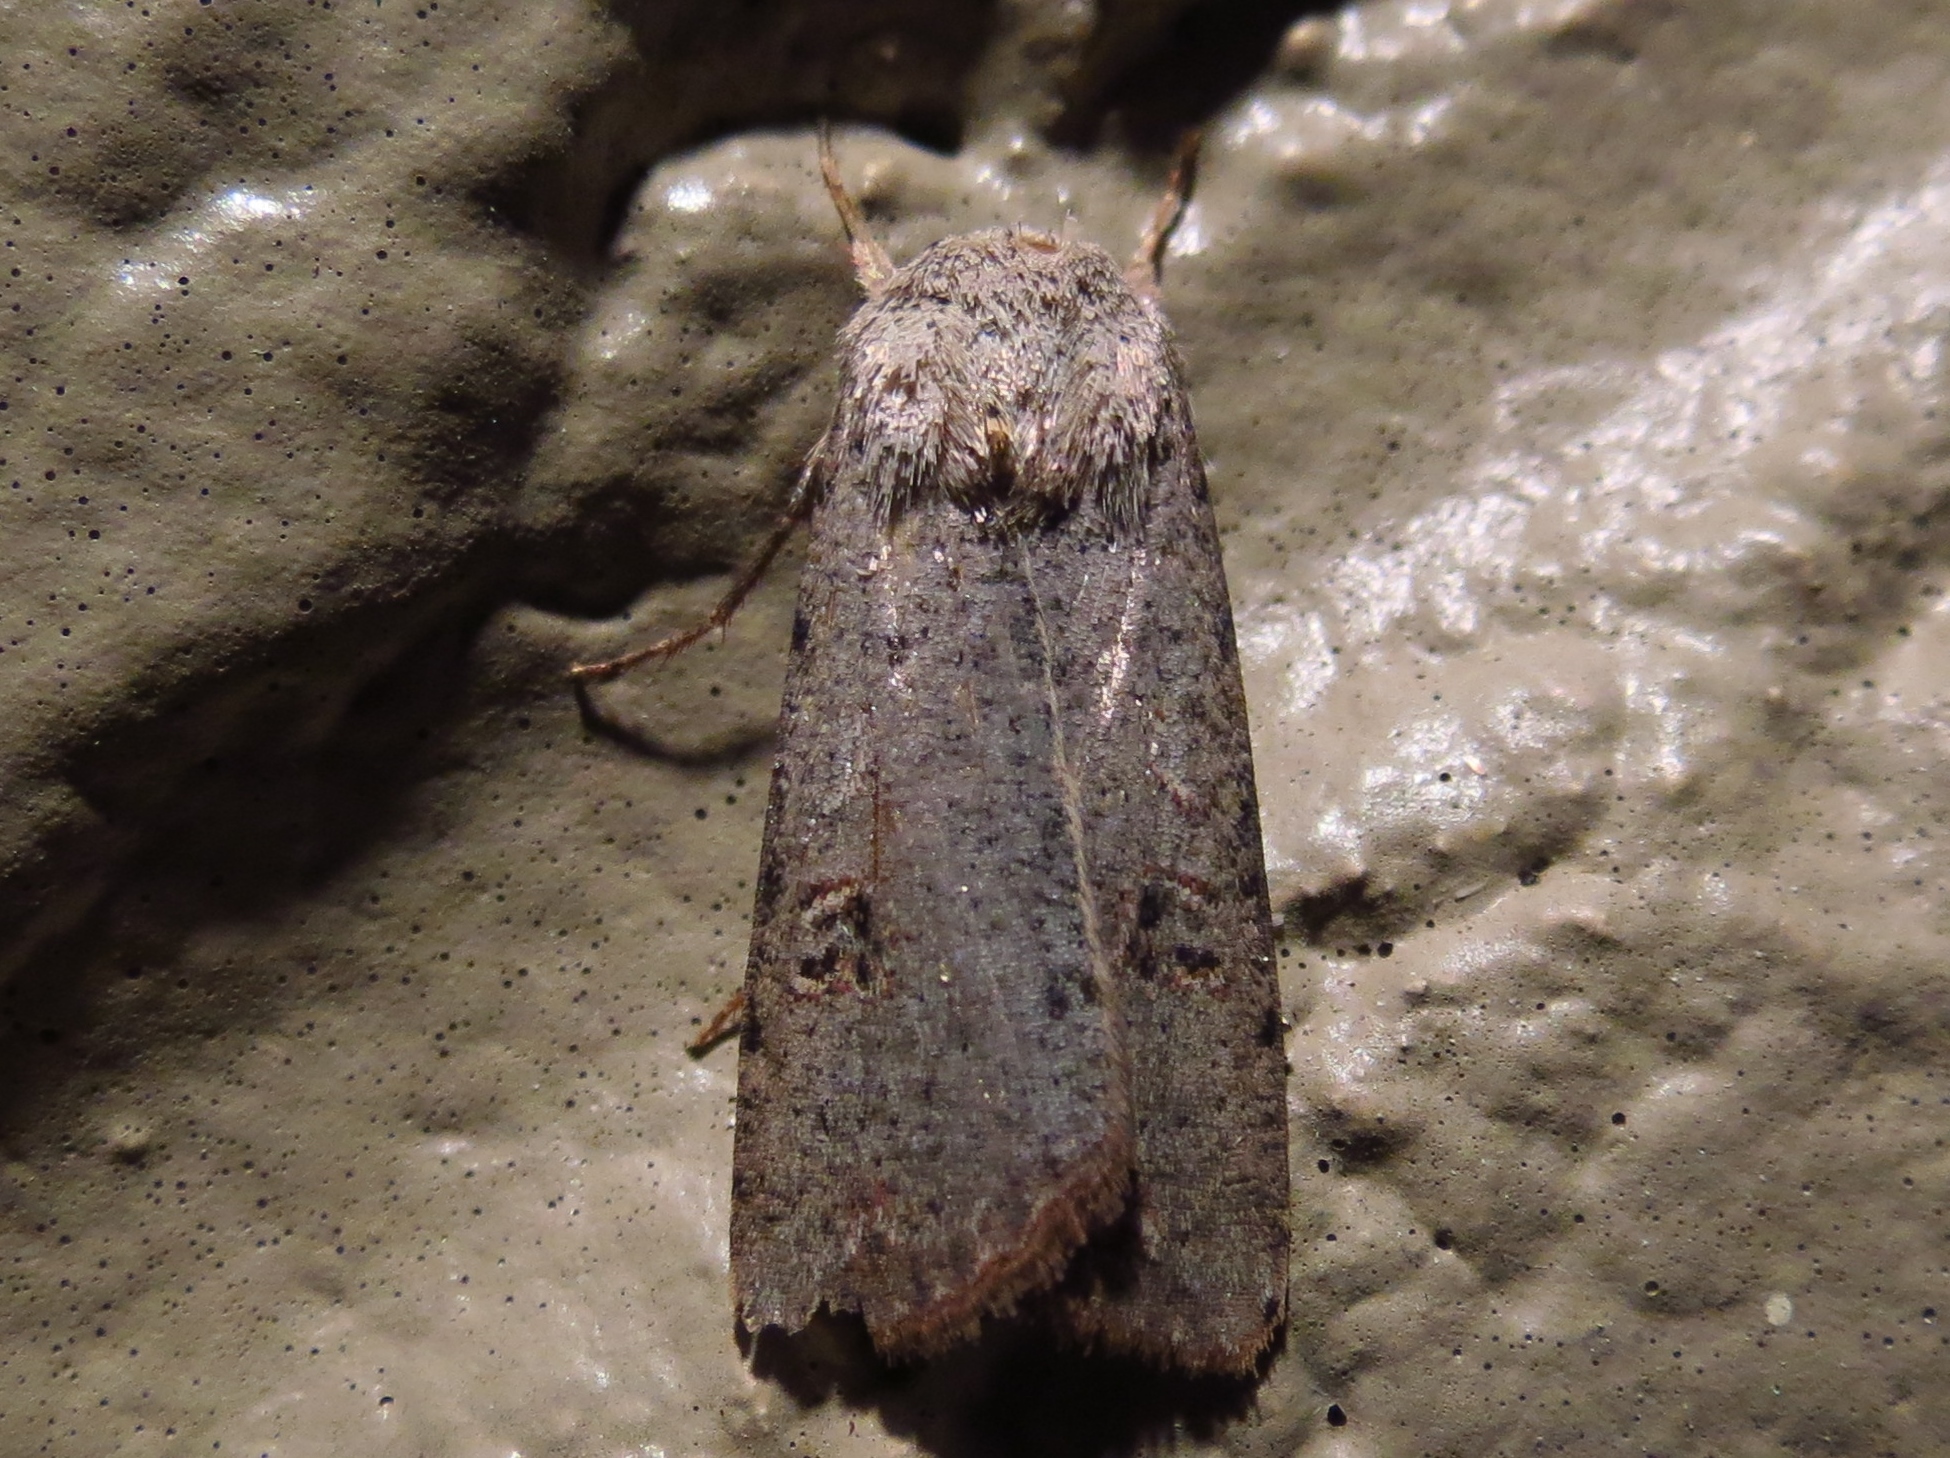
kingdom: Animalia
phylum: Arthropoda
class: Insecta
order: Lepidoptera
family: Noctuidae
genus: Anicla
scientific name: Anicla infecta
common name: Green cutworm
